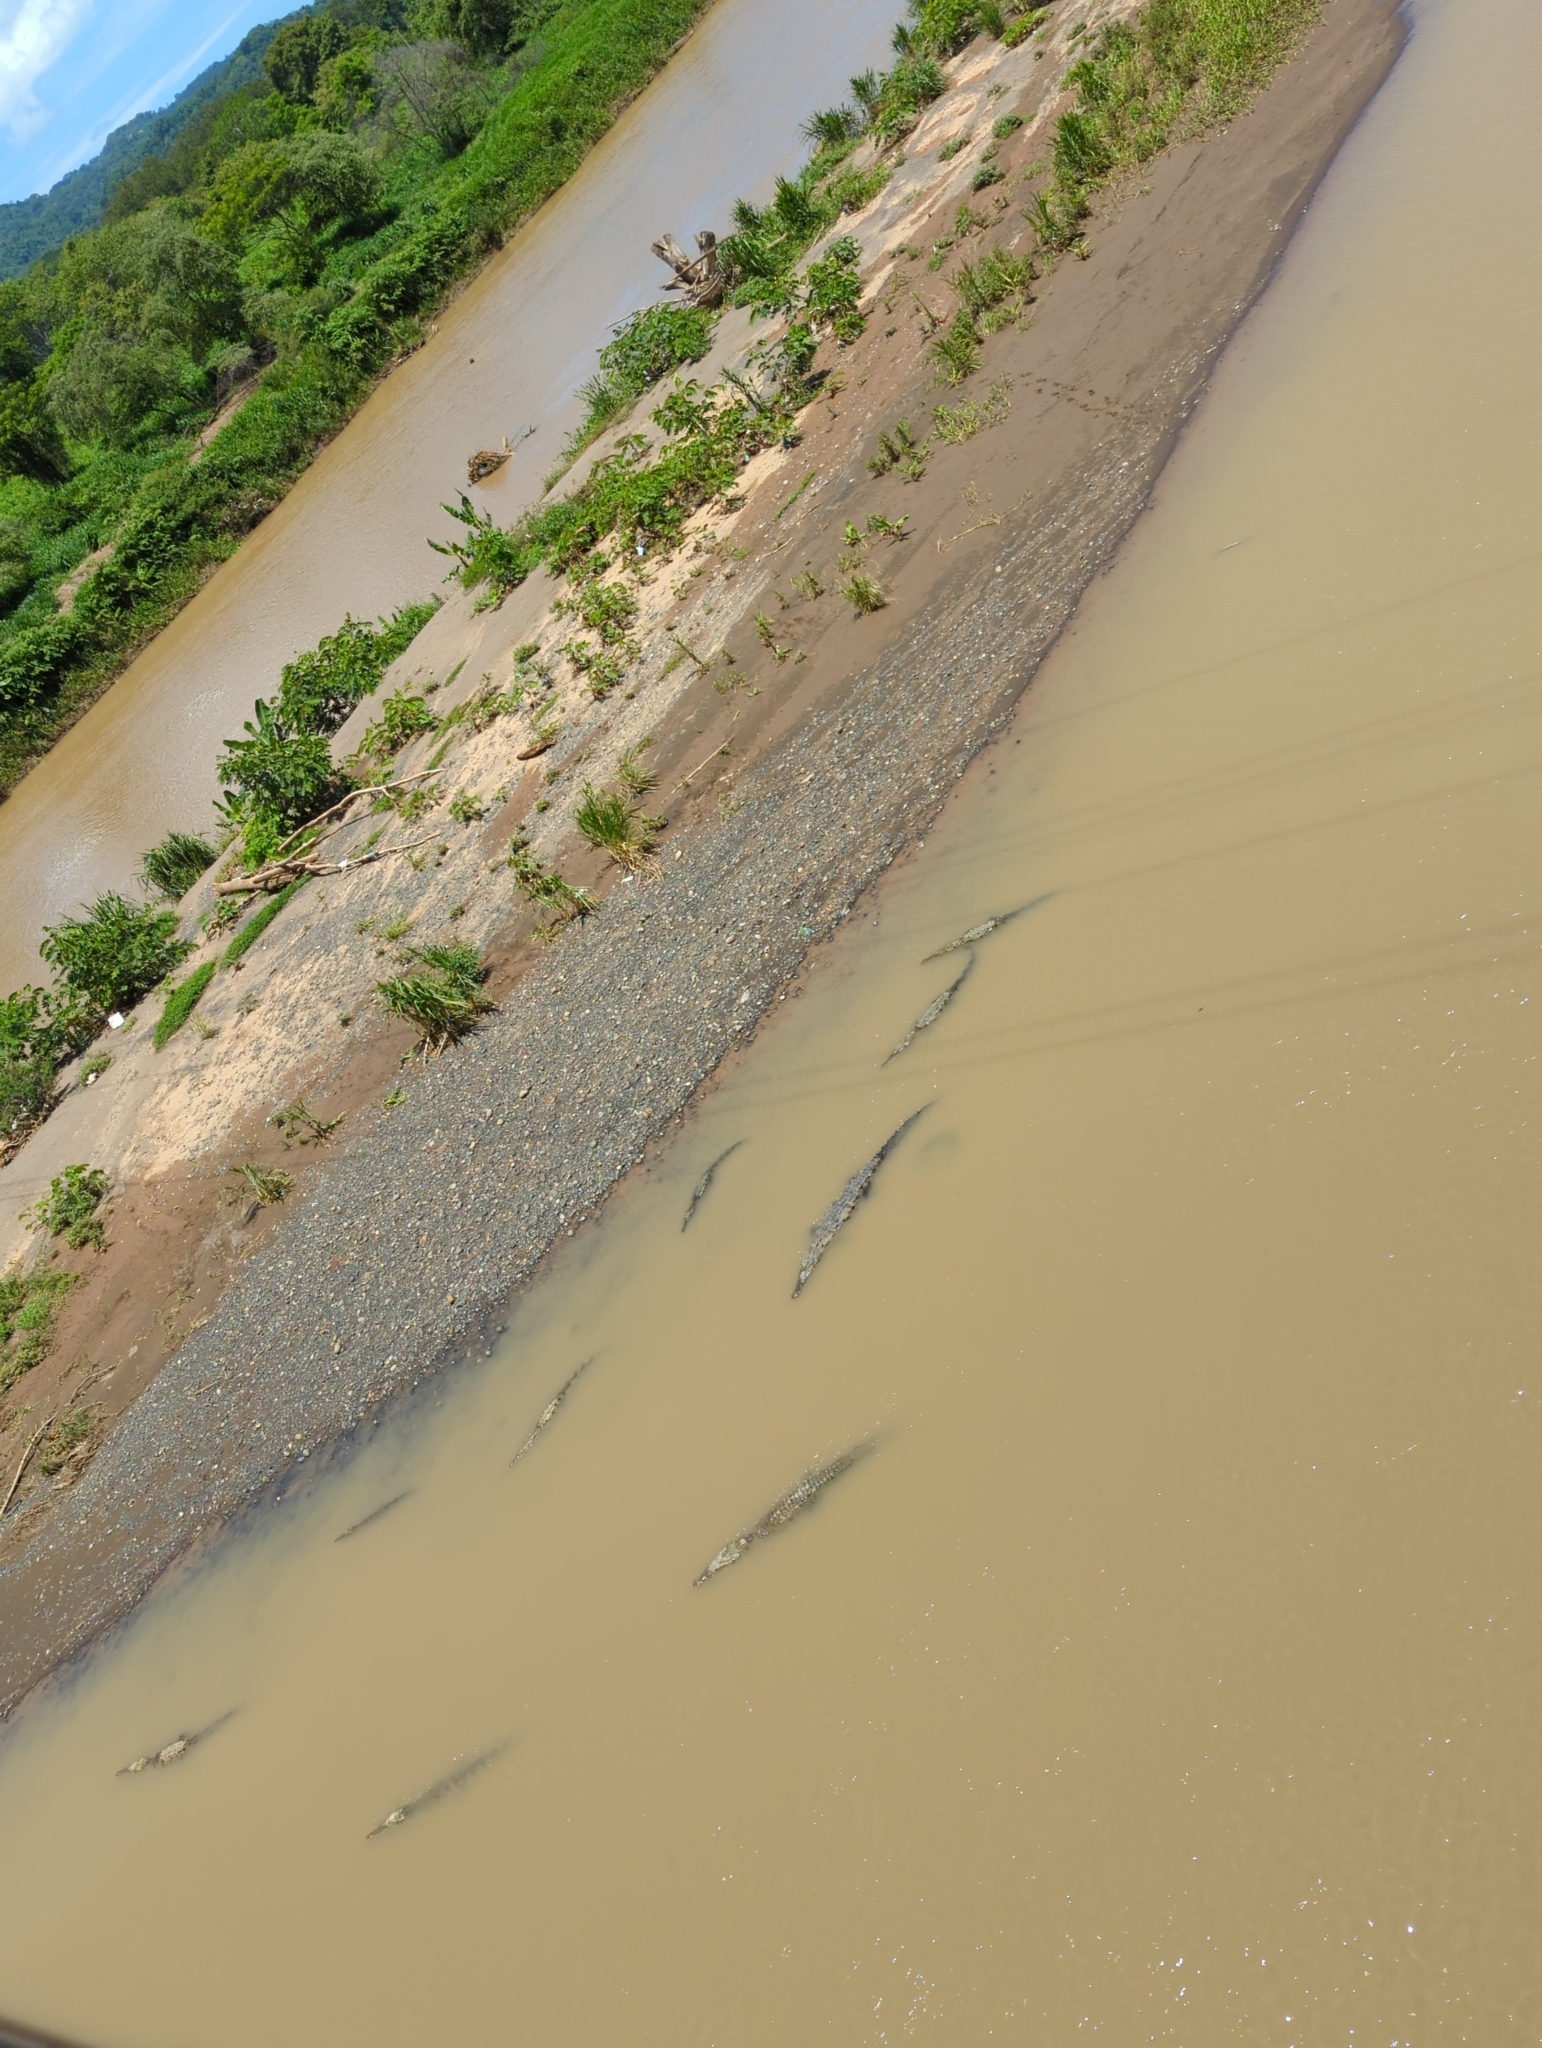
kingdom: Animalia
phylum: Chordata
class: Crocodylia
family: Crocodylidae
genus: Crocodylus
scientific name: Crocodylus acutus
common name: American crocodile
